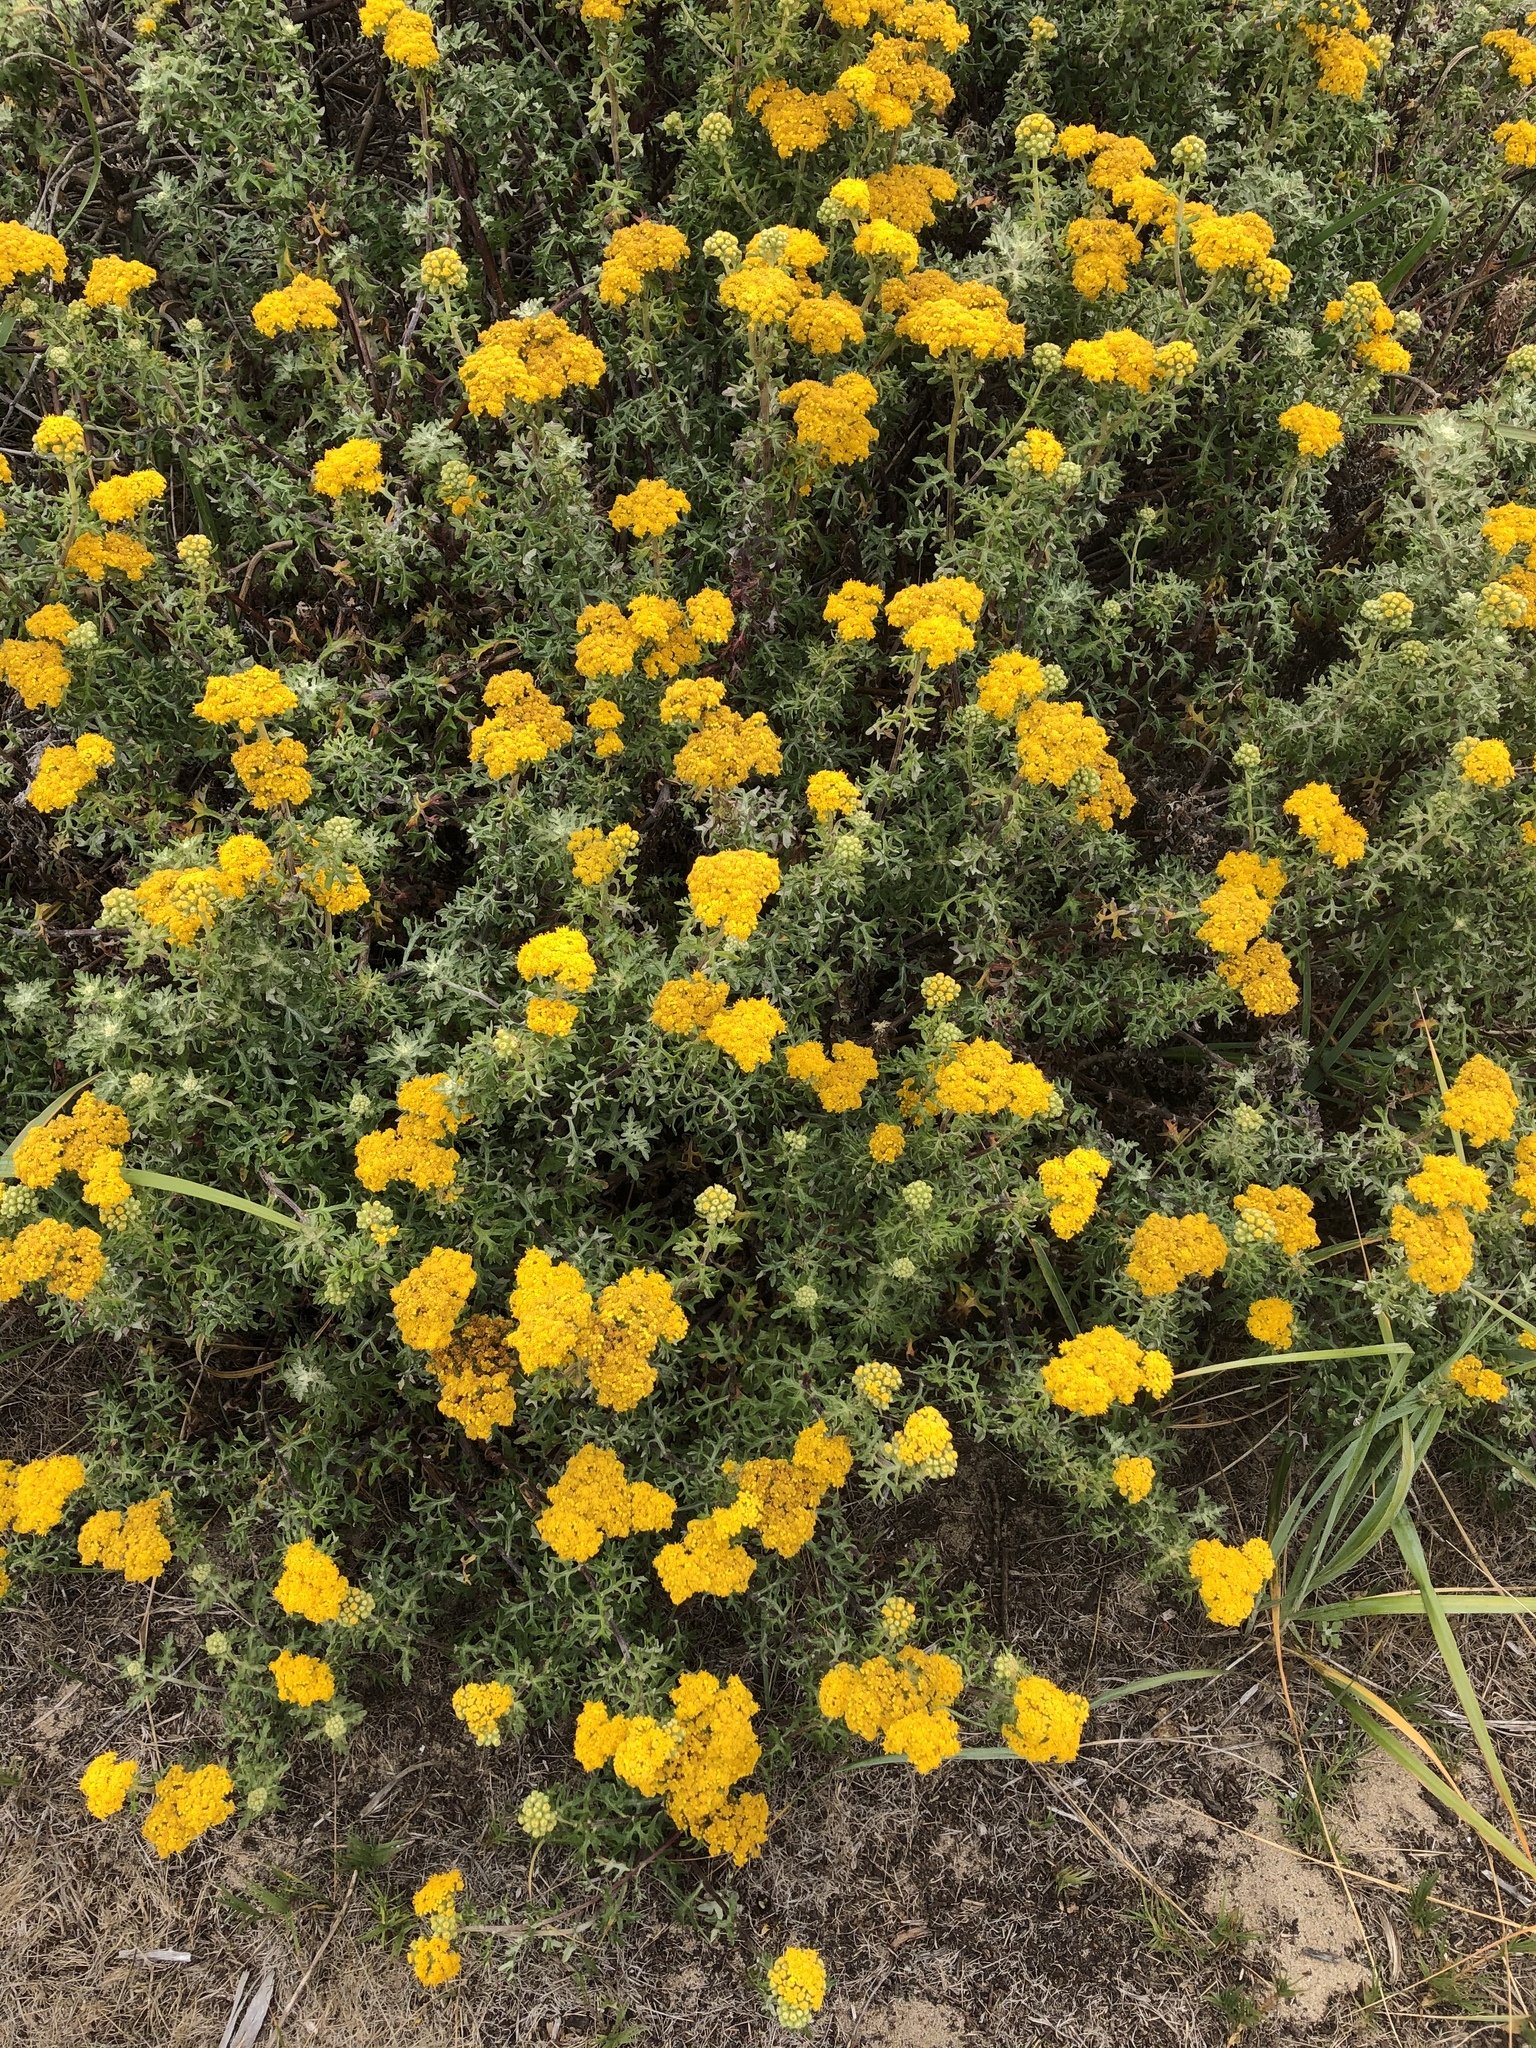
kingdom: Plantae
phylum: Tracheophyta
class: Magnoliopsida
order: Asterales
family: Asteraceae
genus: Eriophyllum
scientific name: Eriophyllum staechadifolium
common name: Lizardtail
